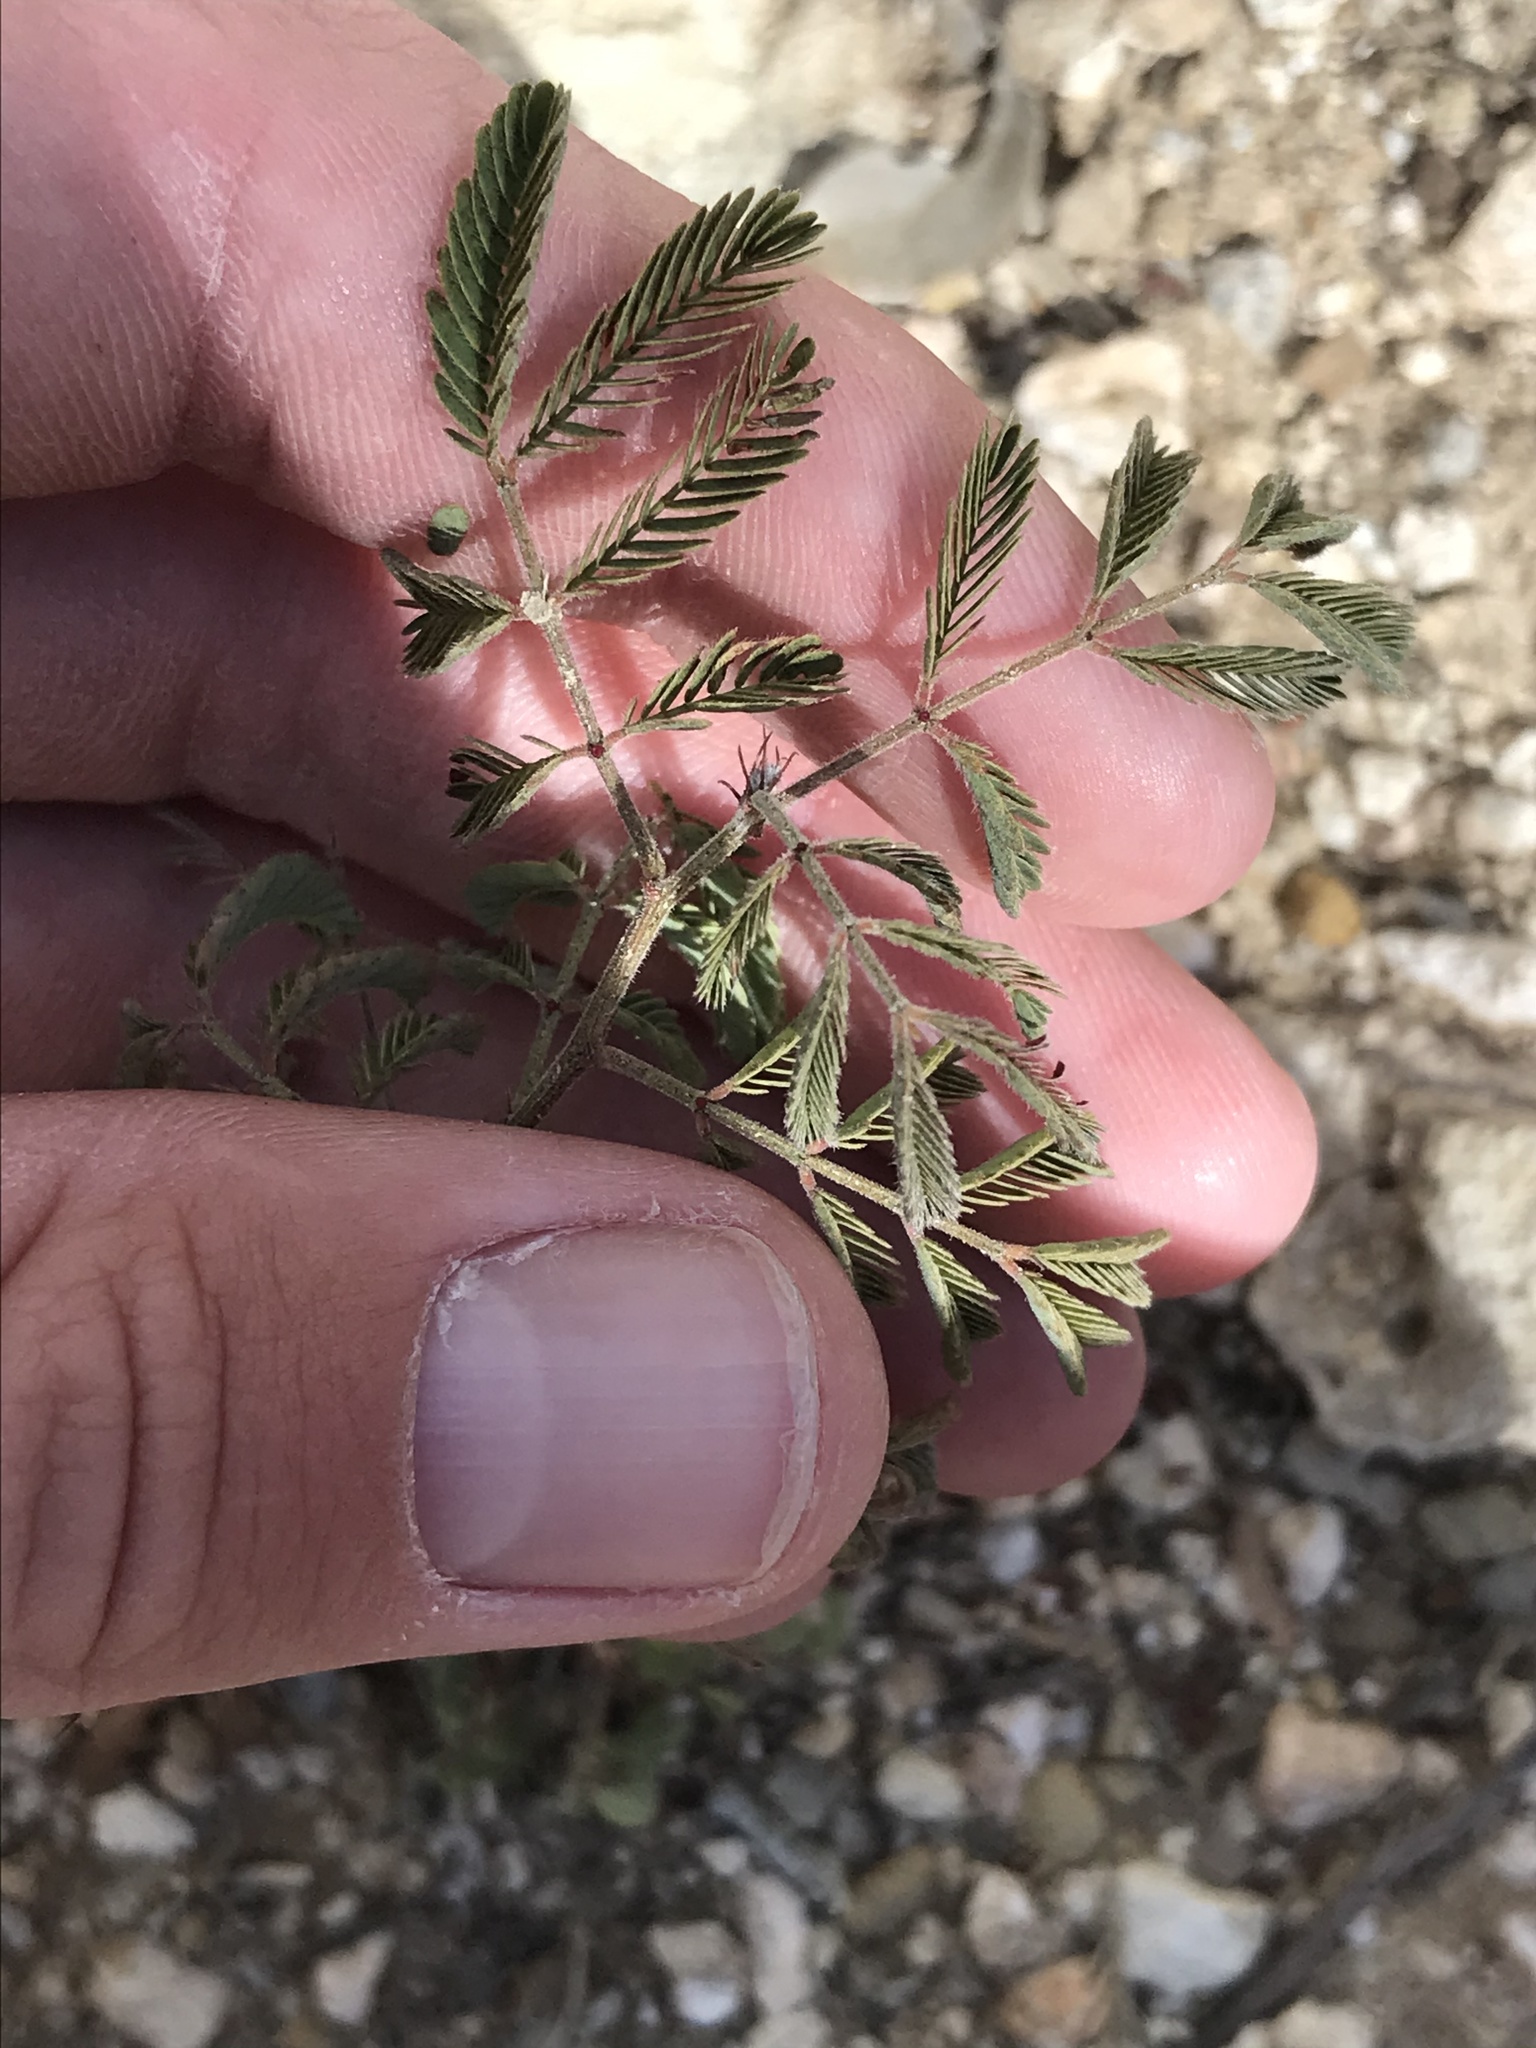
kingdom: Plantae
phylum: Tracheophyta
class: Magnoliopsida
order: Fabales
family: Fabaceae
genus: Mimosa
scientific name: Mimosa aculeaticarpa
